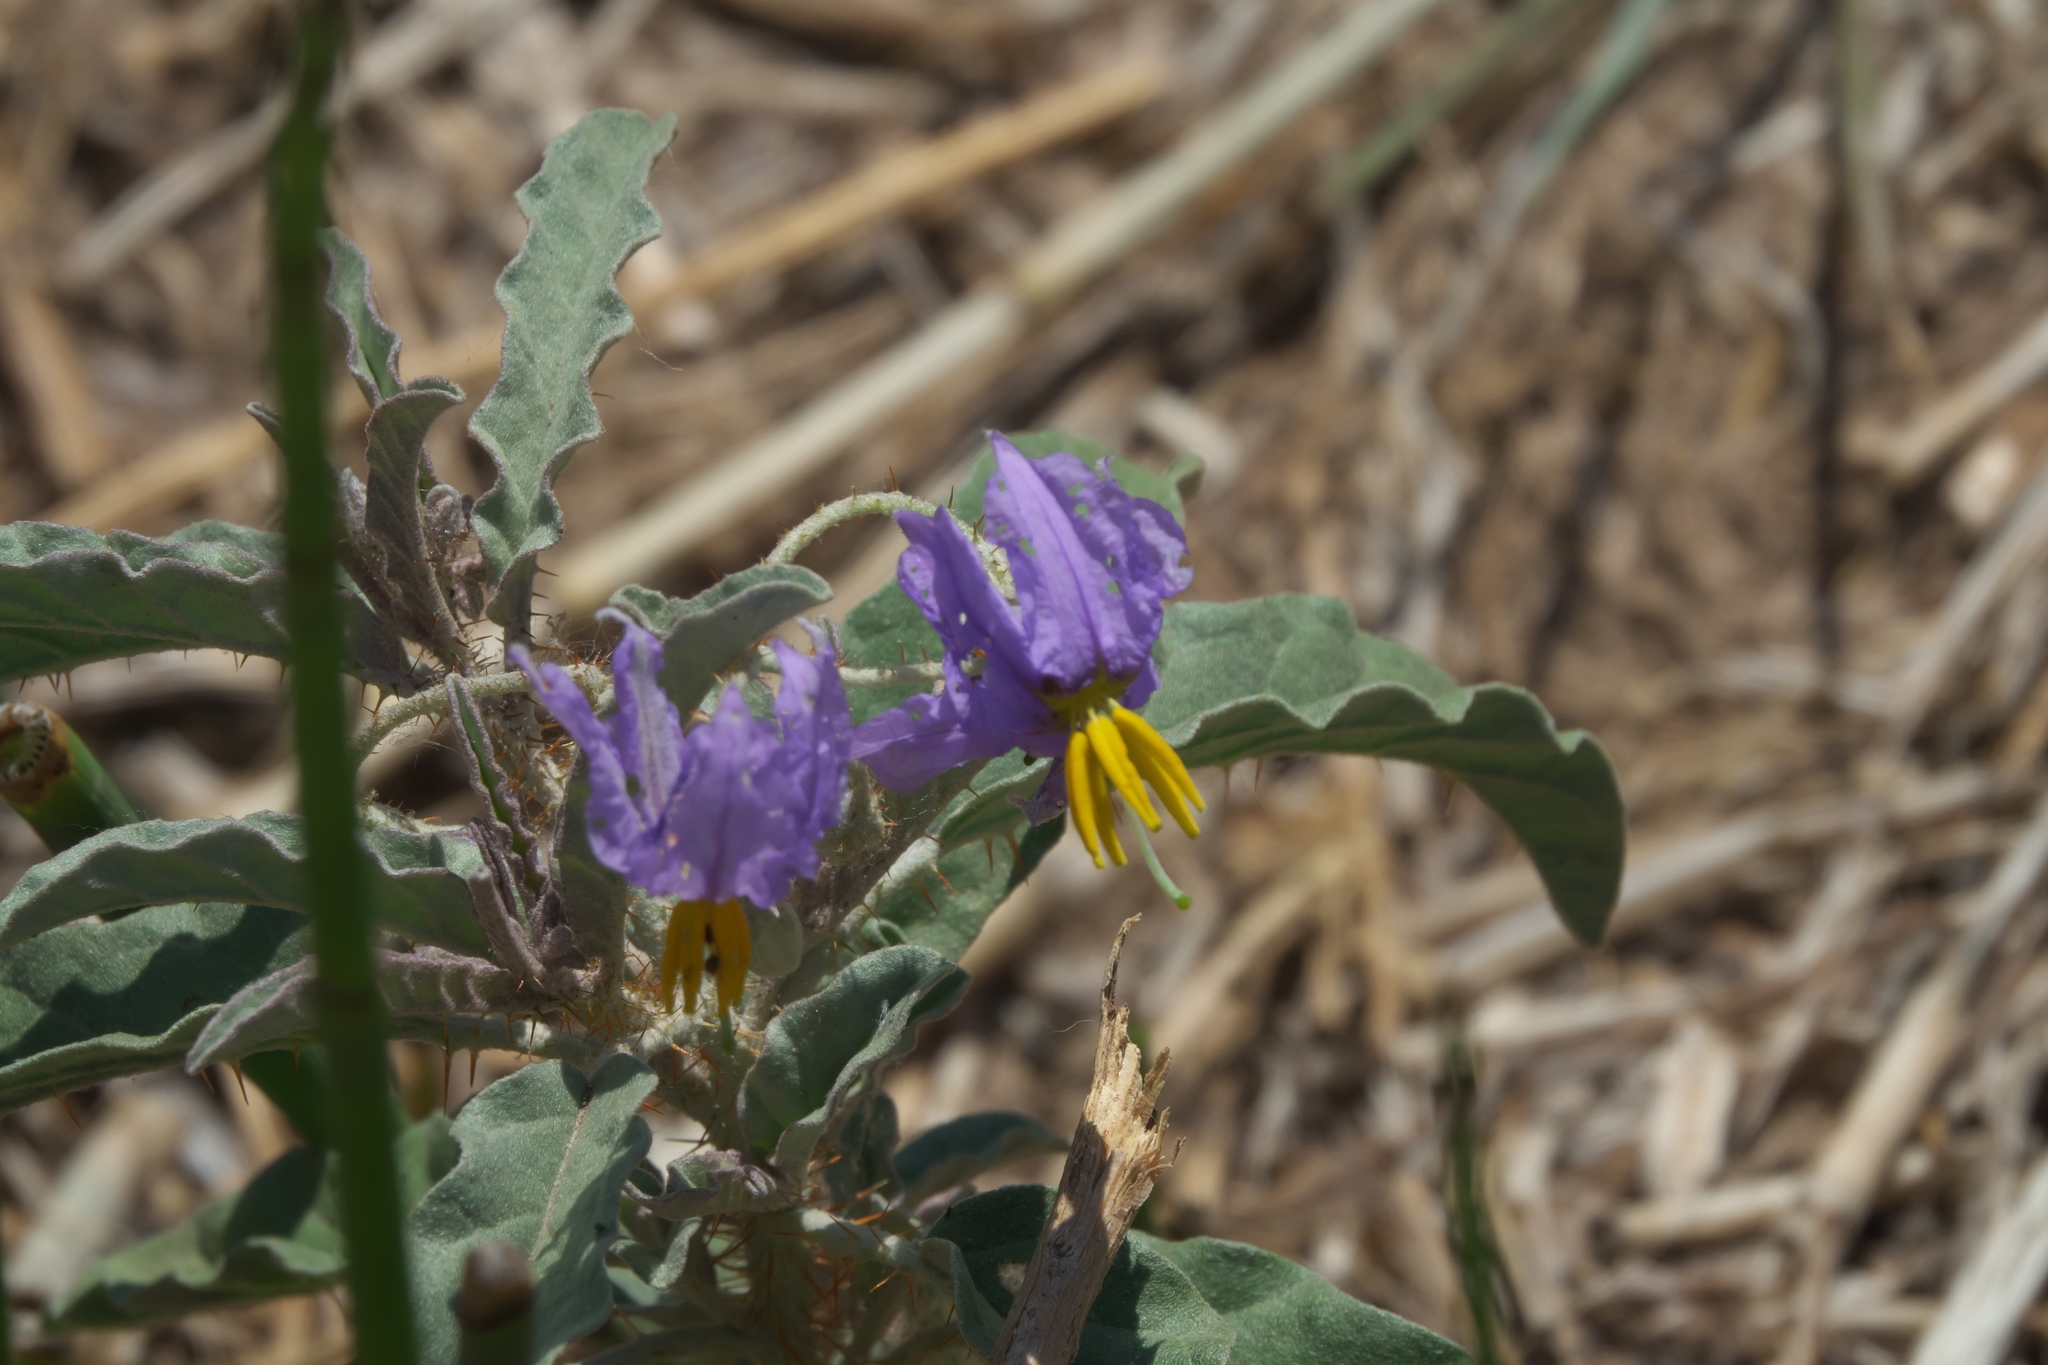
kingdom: Plantae
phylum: Tracheophyta
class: Magnoliopsida
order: Solanales
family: Solanaceae
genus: Solanum
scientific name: Solanum elaeagnifolium
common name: Silverleaf nightshade
